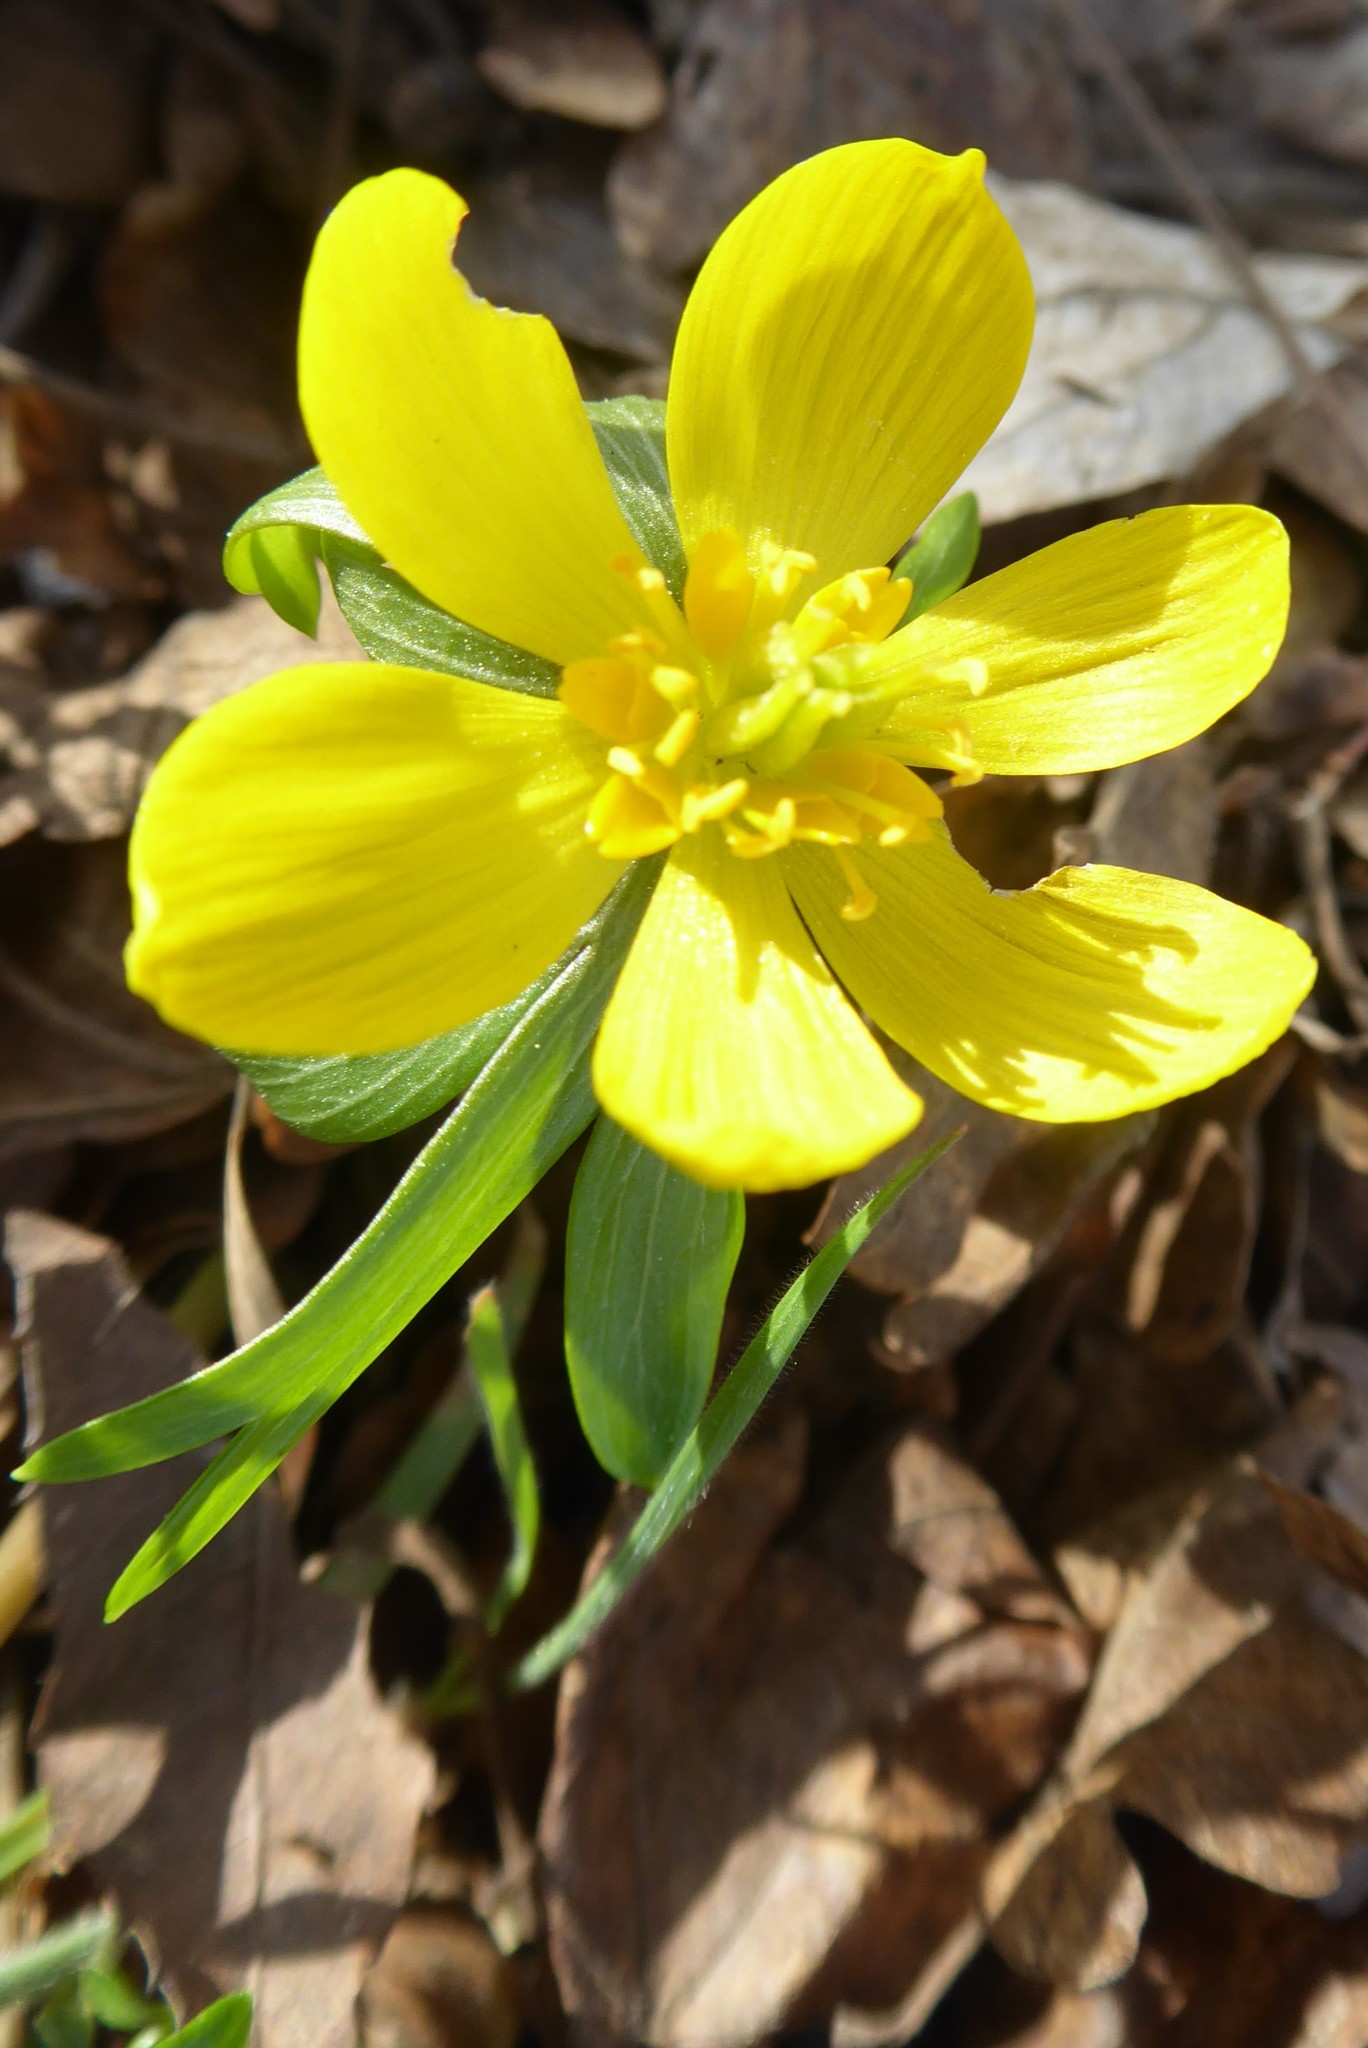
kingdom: Plantae
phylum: Tracheophyta
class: Magnoliopsida
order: Ranunculales
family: Ranunculaceae
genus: Eranthis
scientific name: Eranthis hyemalis
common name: Winter aconite
